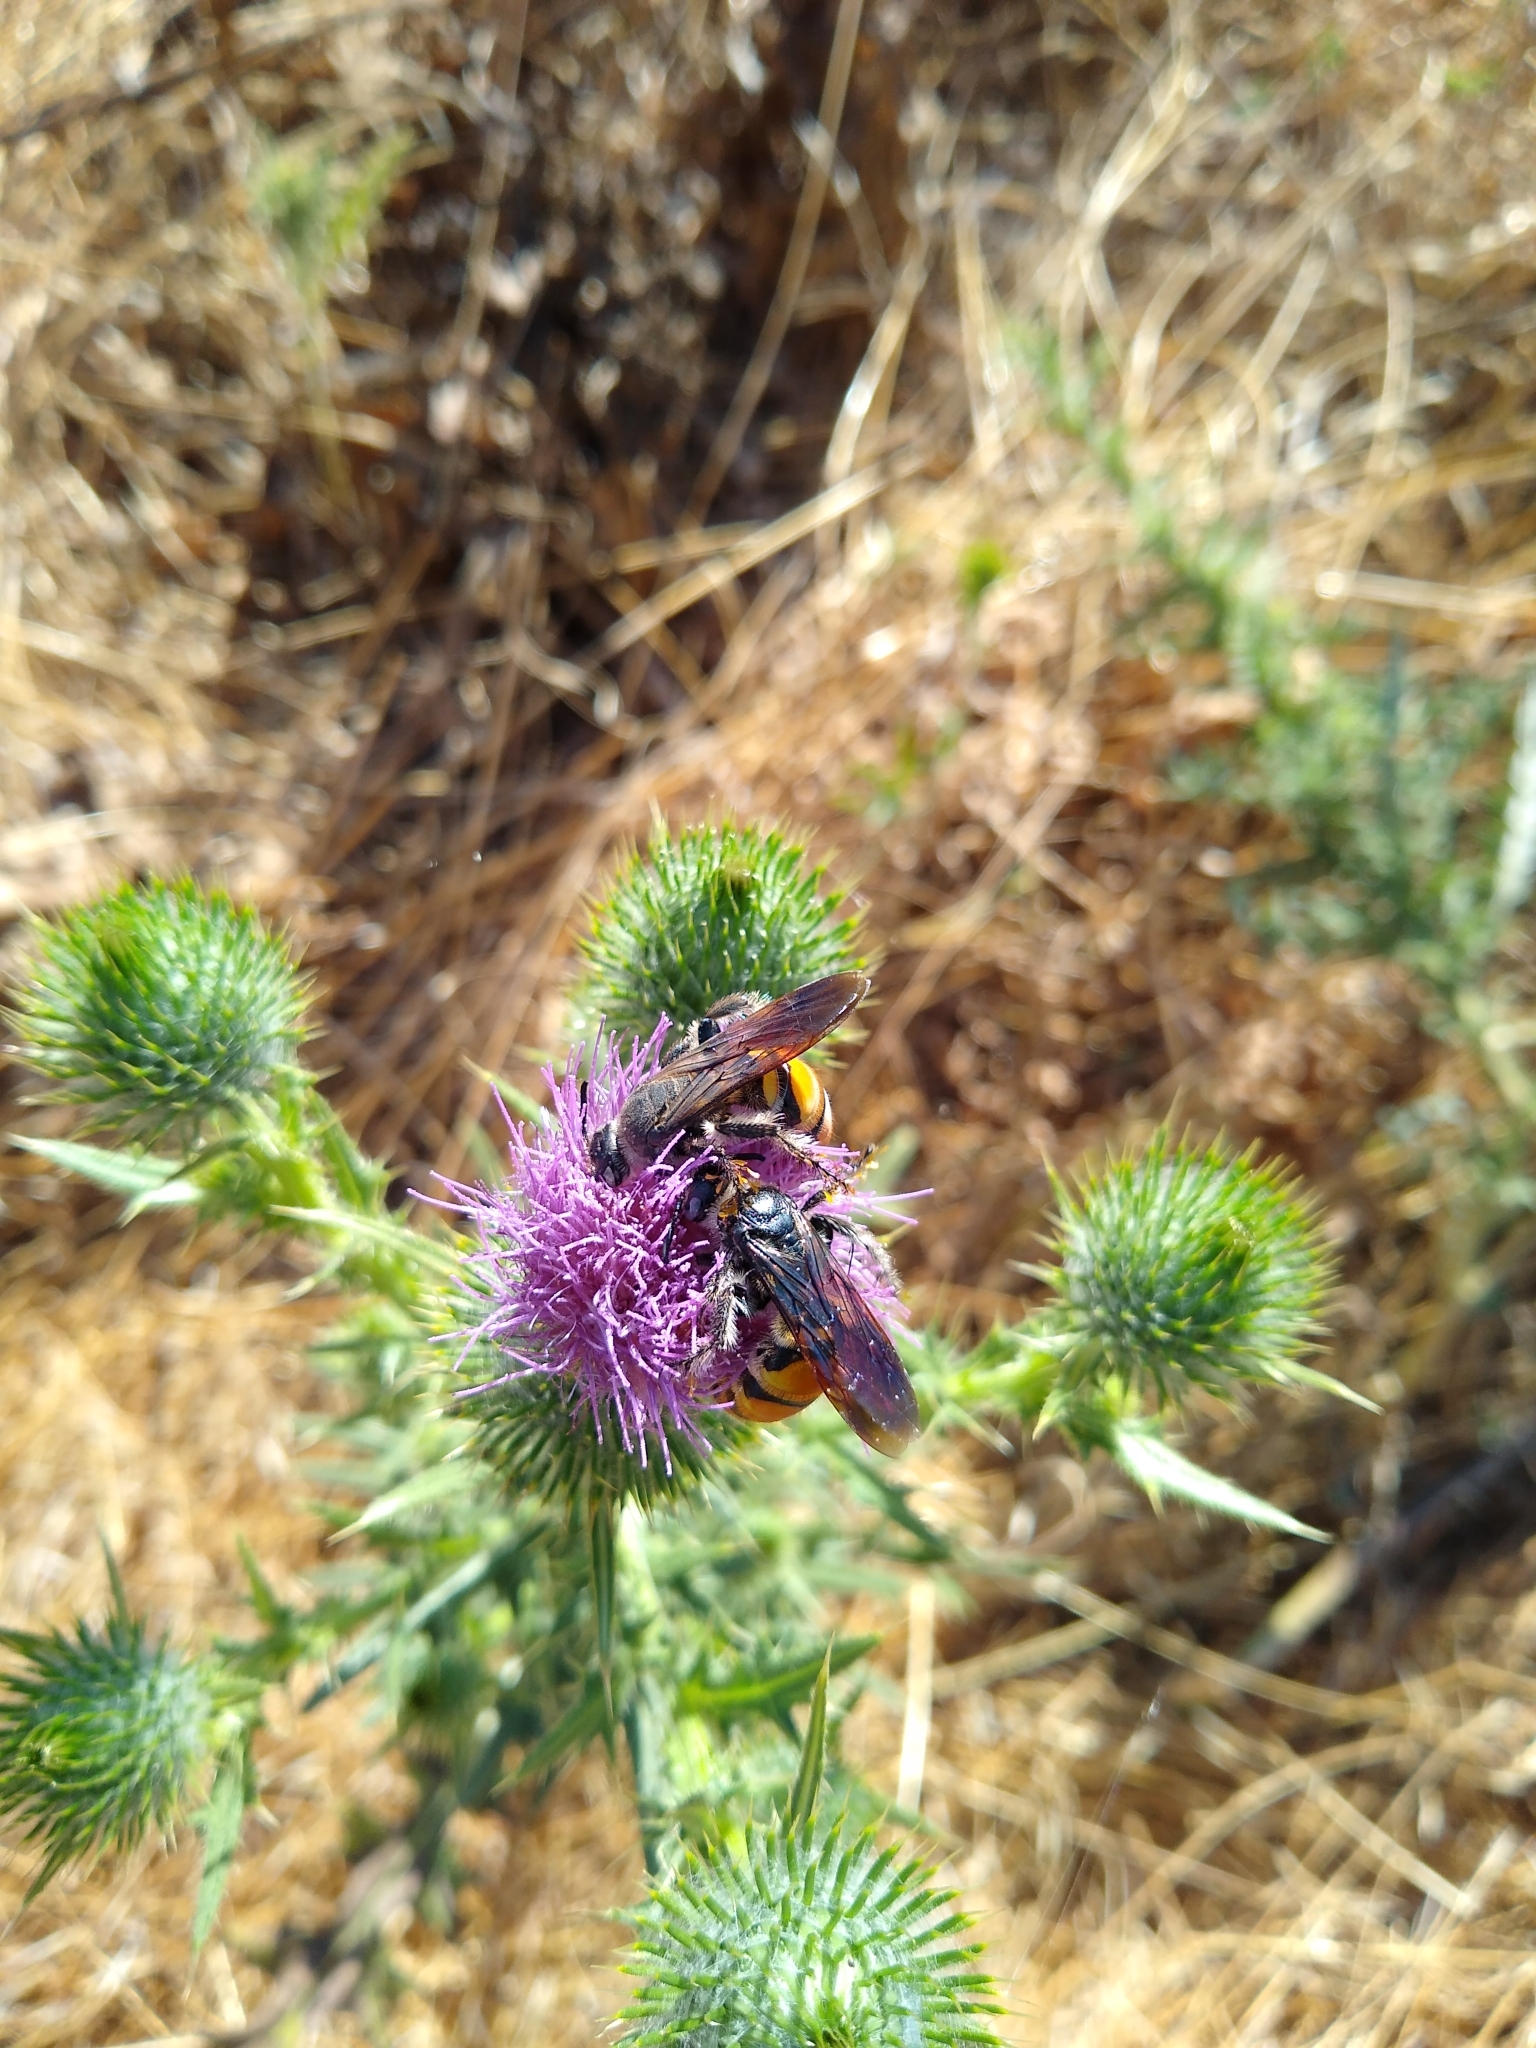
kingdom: Animalia
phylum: Arthropoda
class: Insecta
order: Hymenoptera
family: Scoliidae
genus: Dielis
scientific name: Dielis tolteca
